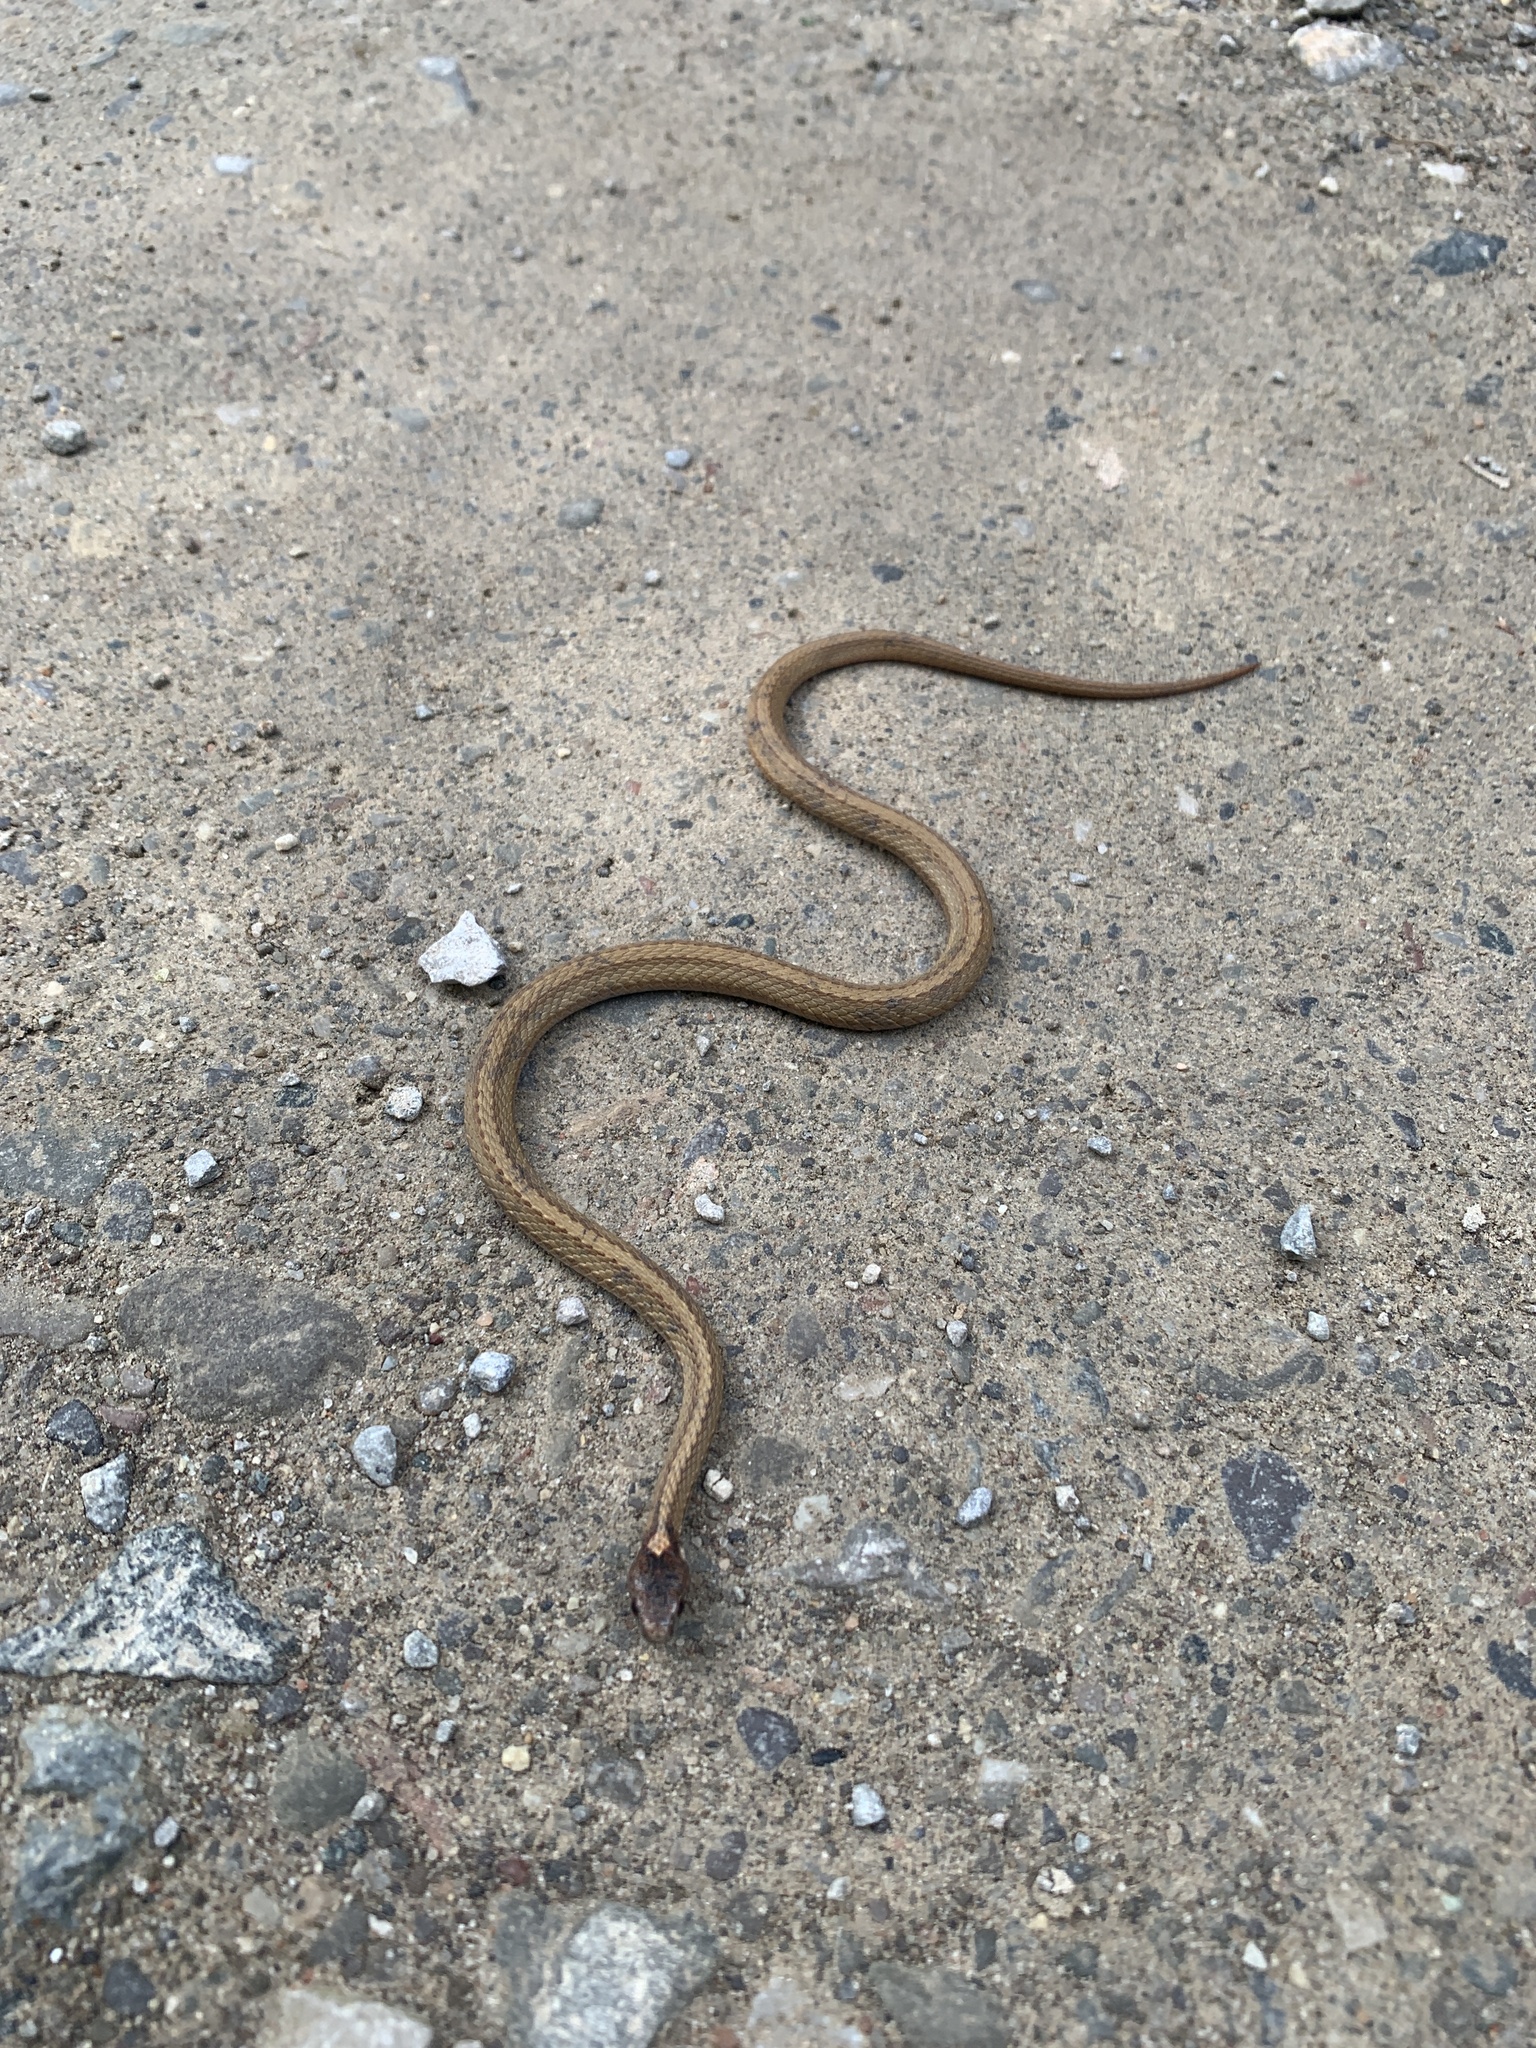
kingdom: Animalia
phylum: Chordata
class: Squamata
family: Colubridae
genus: Storeria
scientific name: Storeria occipitomaculata
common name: Redbelly snake
